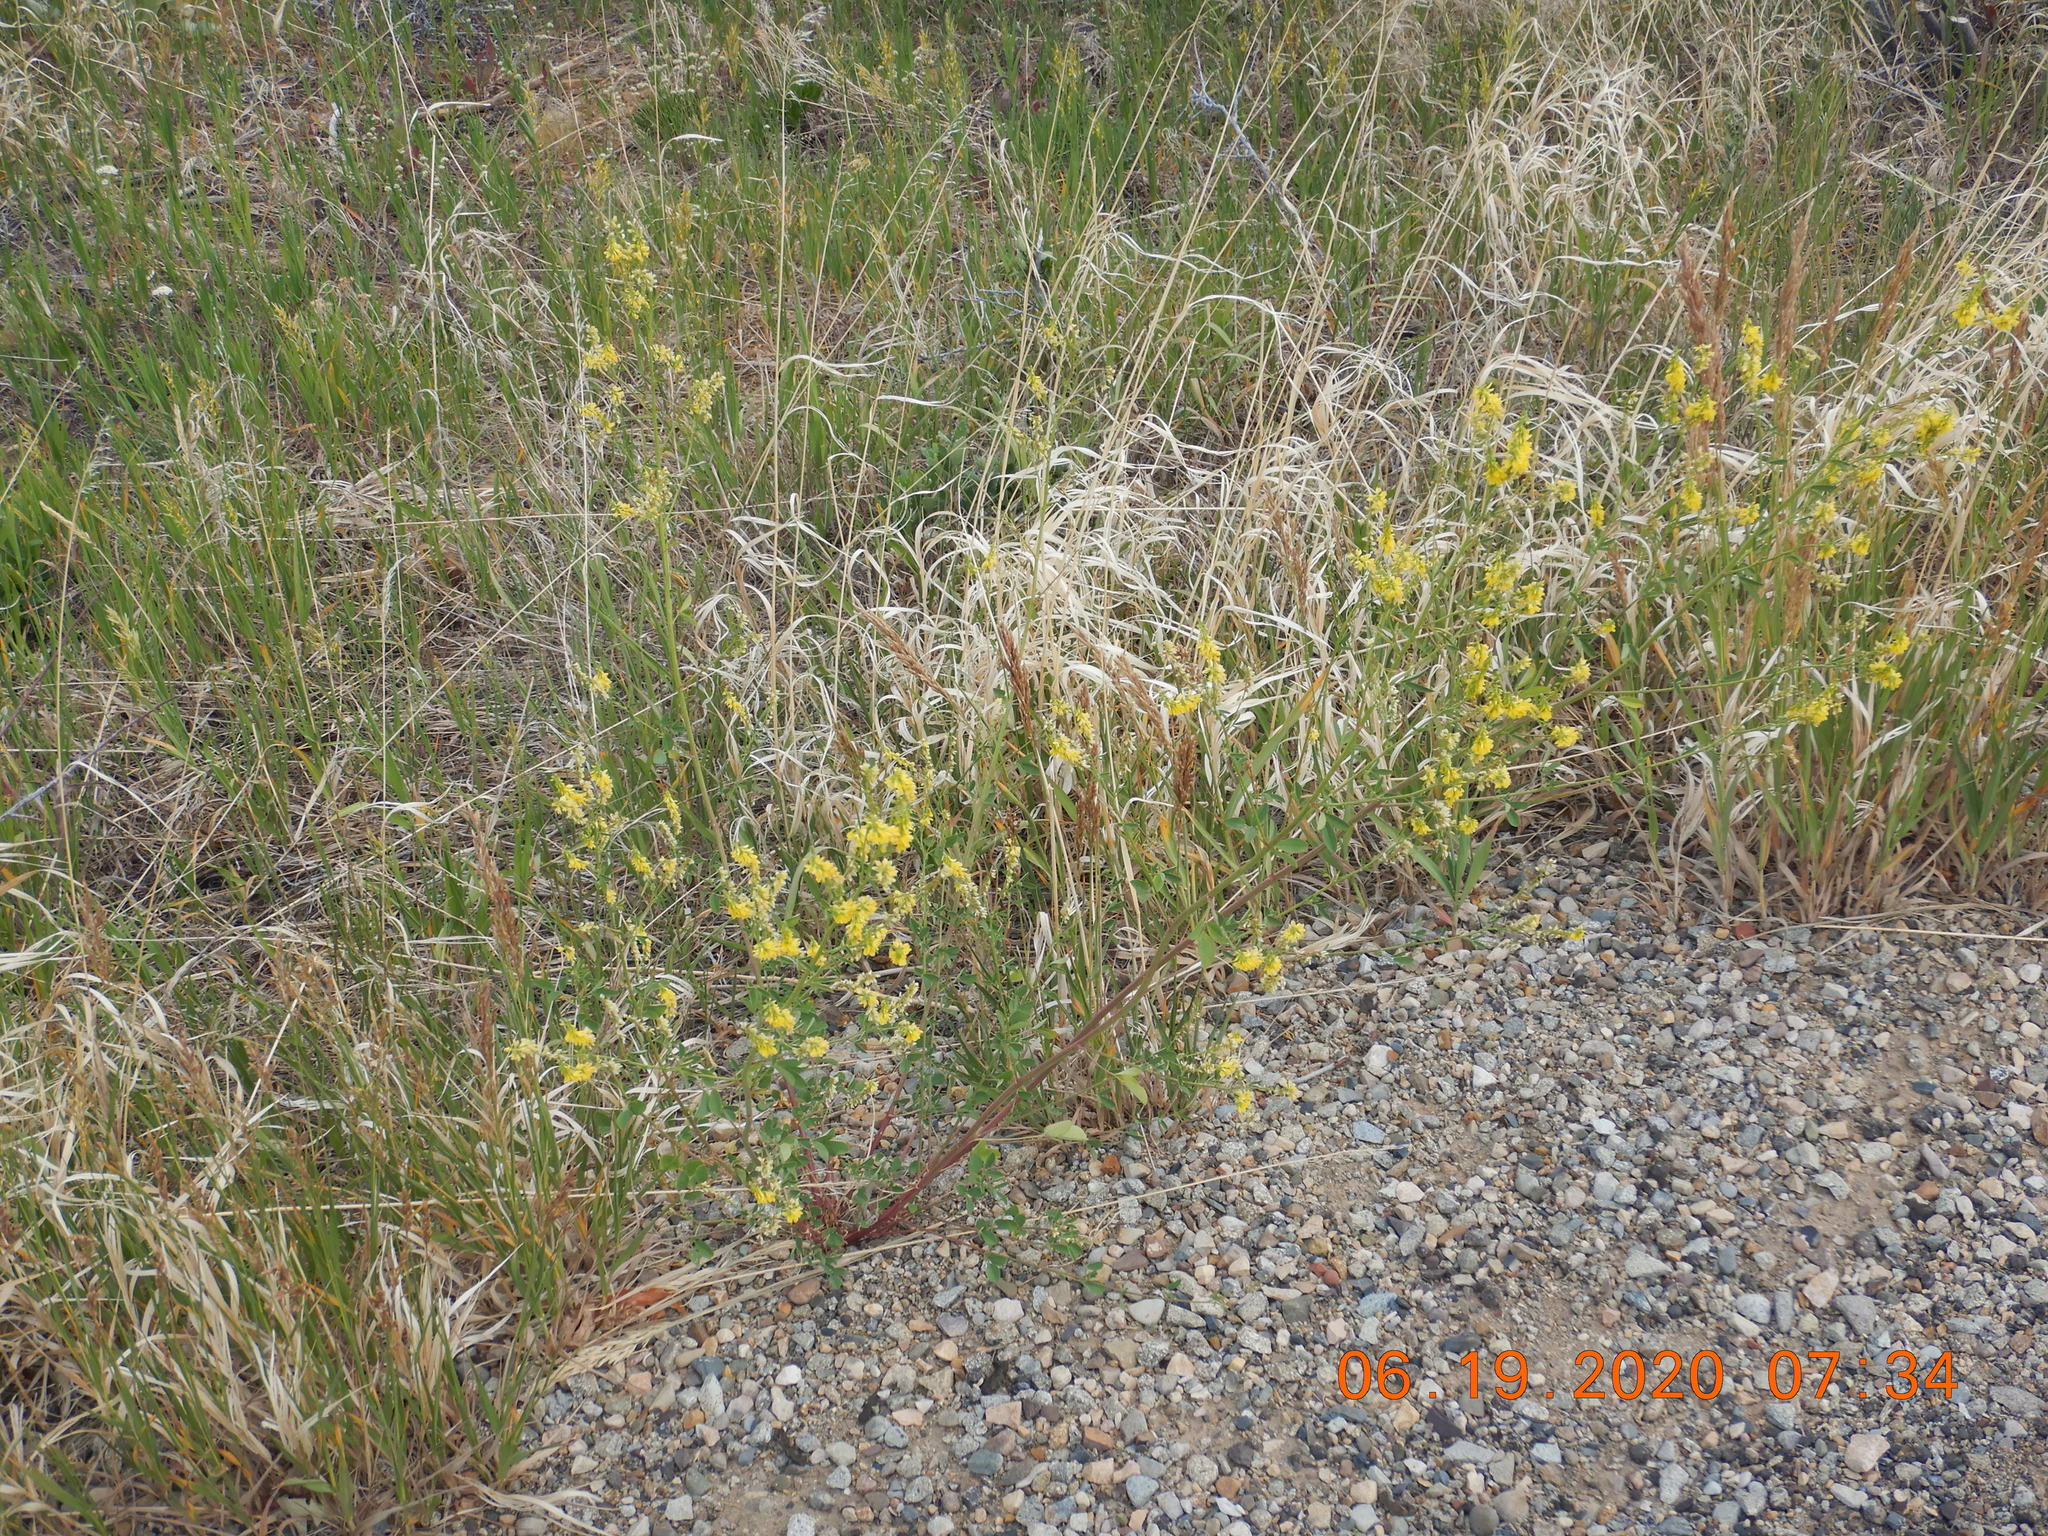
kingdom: Plantae
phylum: Tracheophyta
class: Magnoliopsida
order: Fabales
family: Fabaceae
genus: Melilotus
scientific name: Melilotus officinalis
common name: Sweetclover
